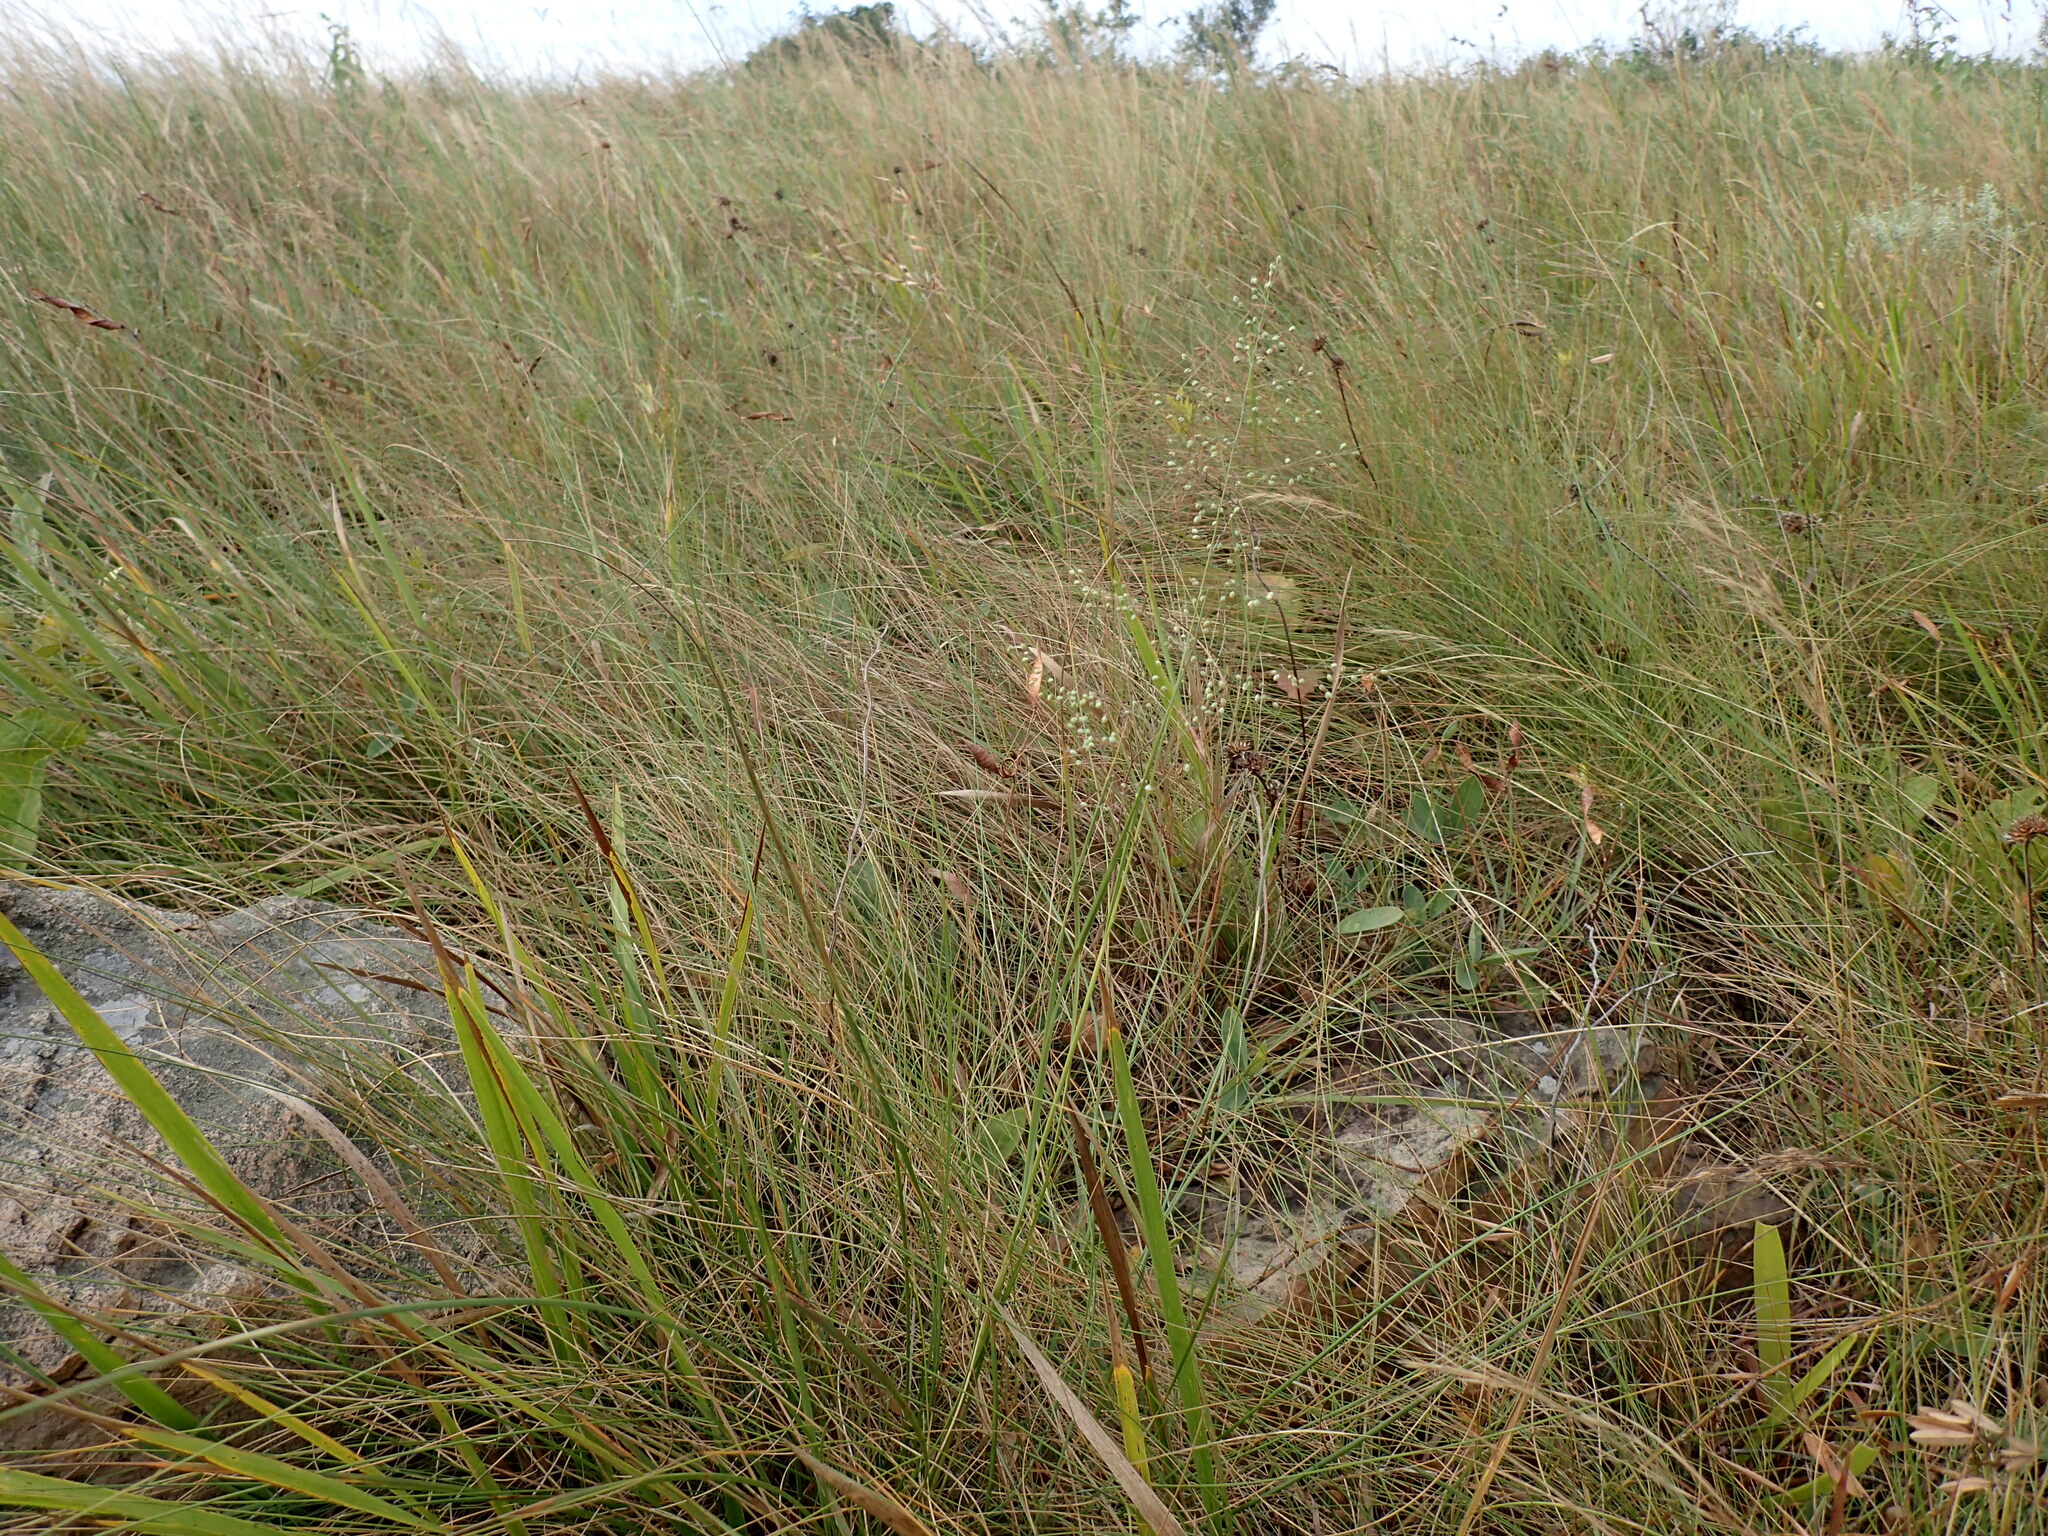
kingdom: Plantae
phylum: Tracheophyta
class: Liliopsida
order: Poales
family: Poaceae
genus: Trichanthecium
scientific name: Trichanthecium natalense
